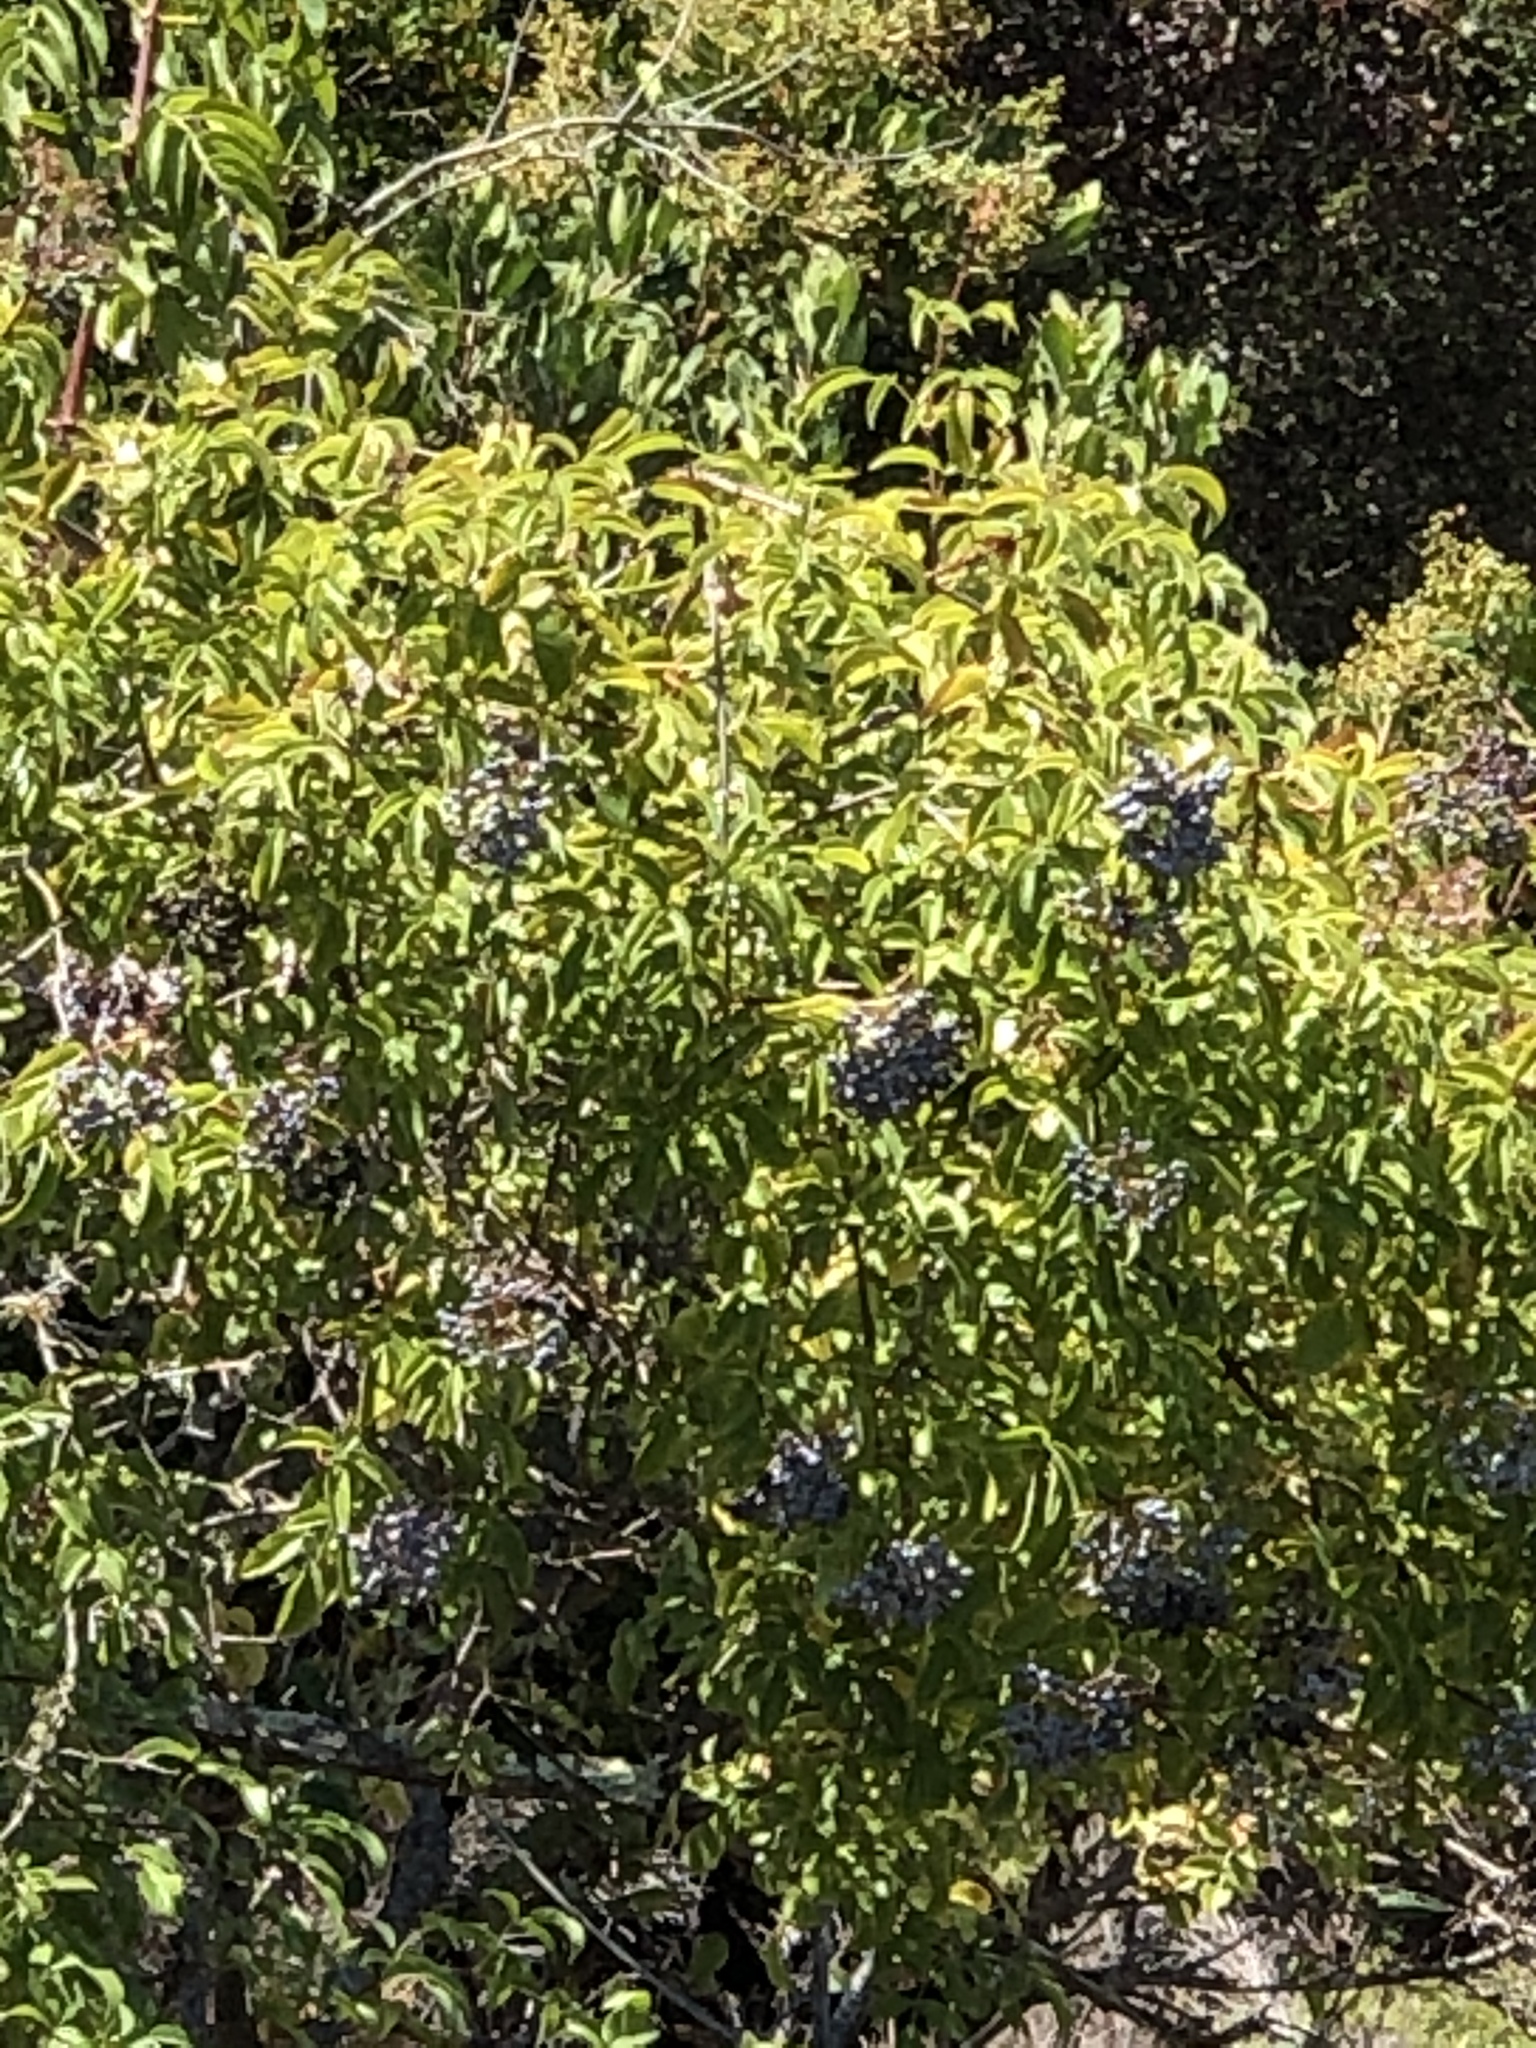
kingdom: Plantae
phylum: Tracheophyta
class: Magnoliopsida
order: Dipsacales
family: Viburnaceae
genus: Sambucus
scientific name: Sambucus cerulea
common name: Blue elder
